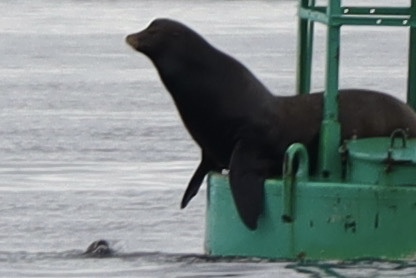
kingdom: Animalia
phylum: Chordata
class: Mammalia
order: Carnivora
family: Otariidae
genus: Zalophus
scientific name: Zalophus californianus
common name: California sea lion
